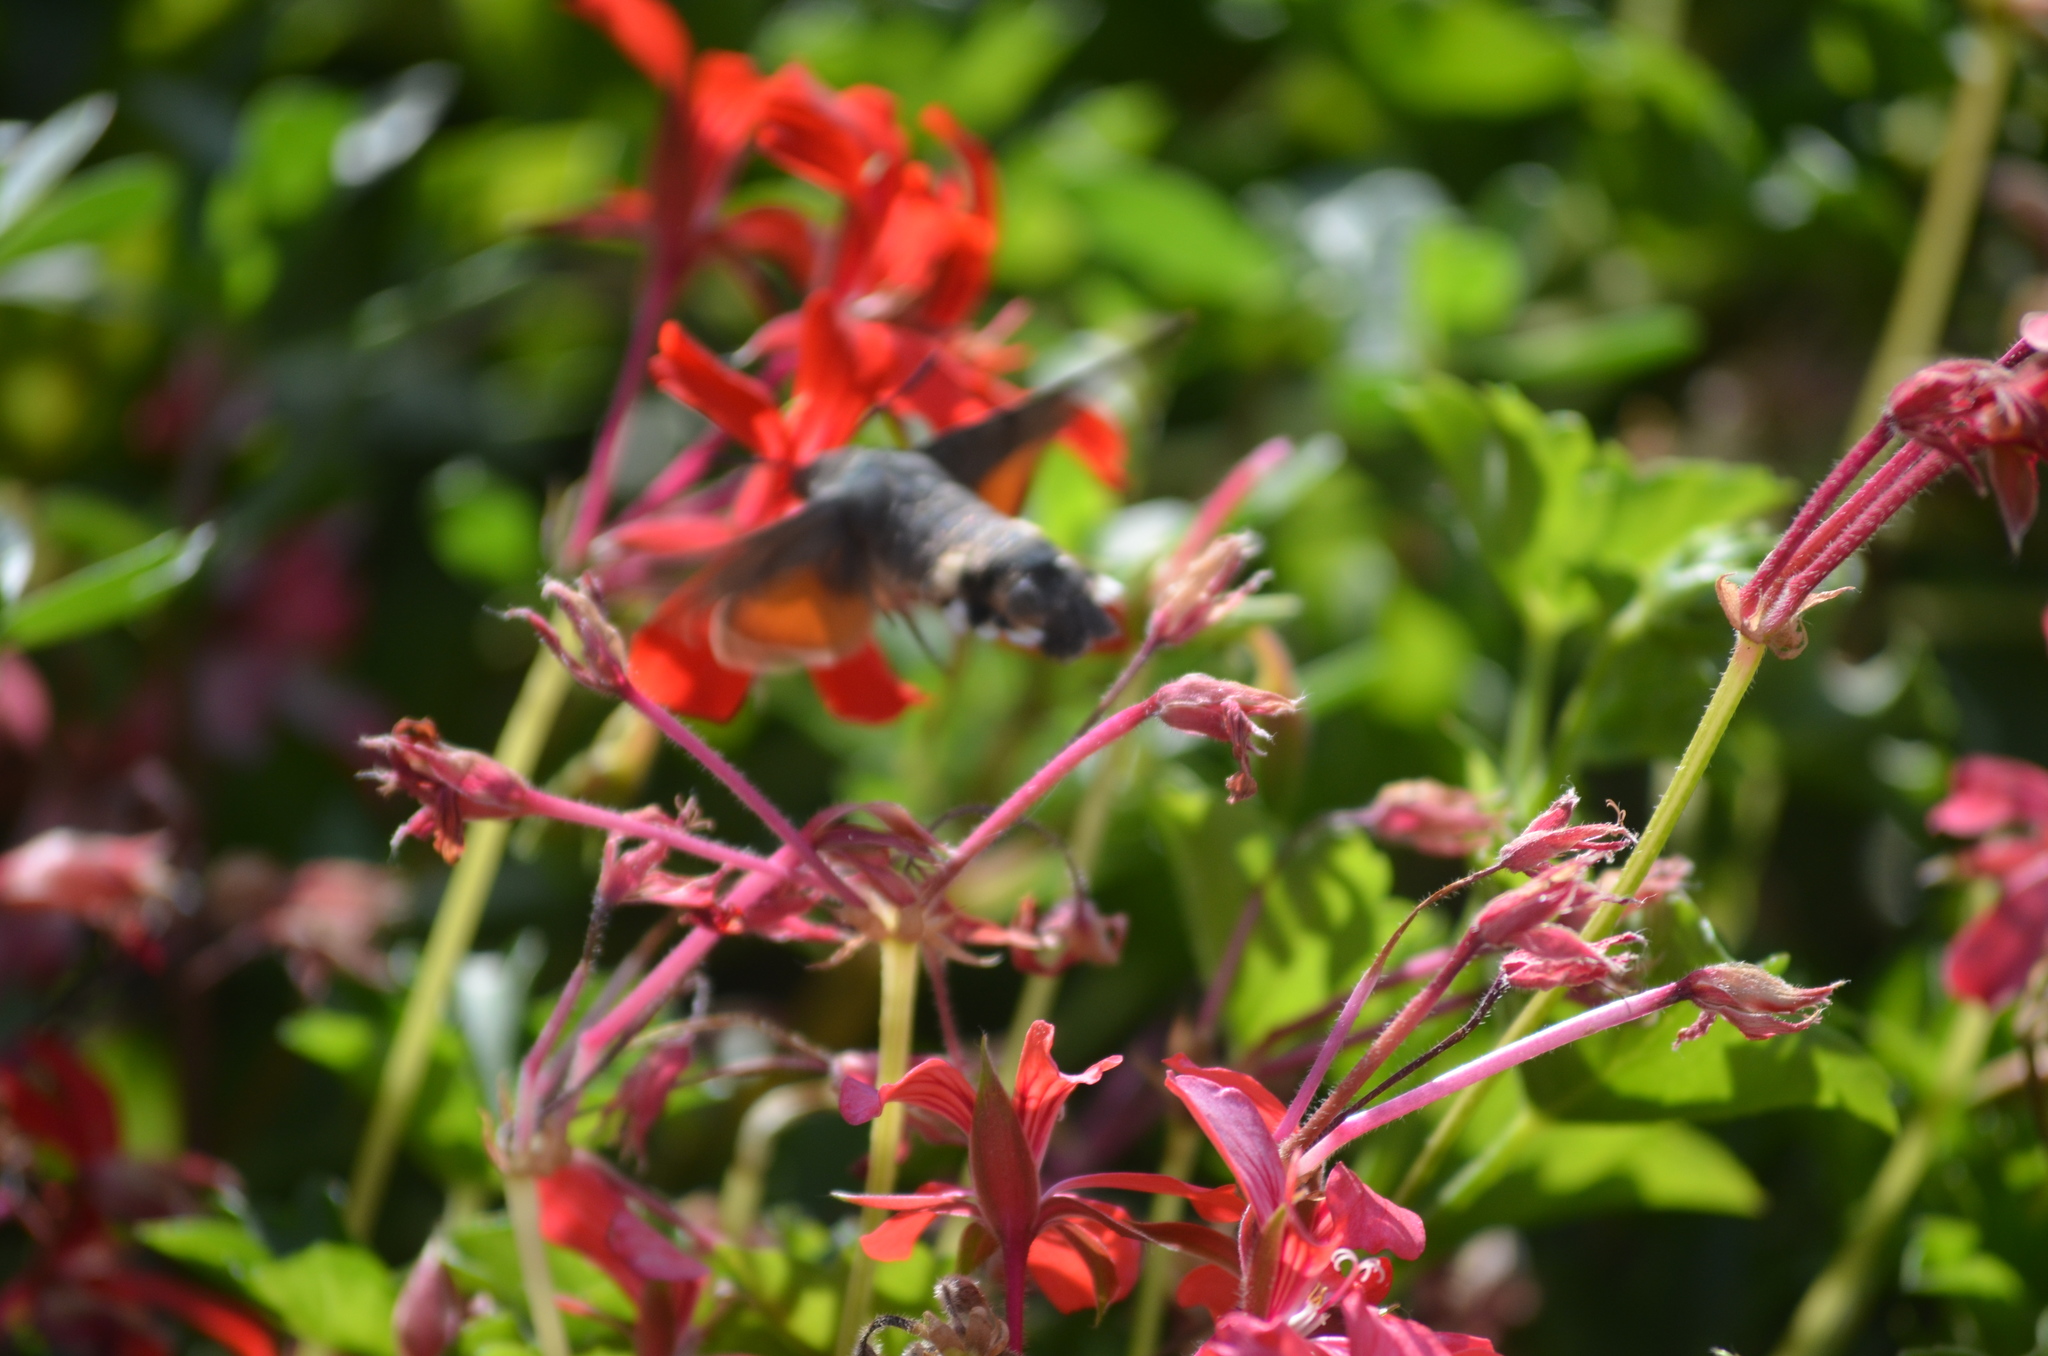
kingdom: Animalia
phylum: Arthropoda
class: Insecta
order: Lepidoptera
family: Sphingidae
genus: Macroglossum
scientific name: Macroglossum stellatarum
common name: Humming-bird hawk-moth
